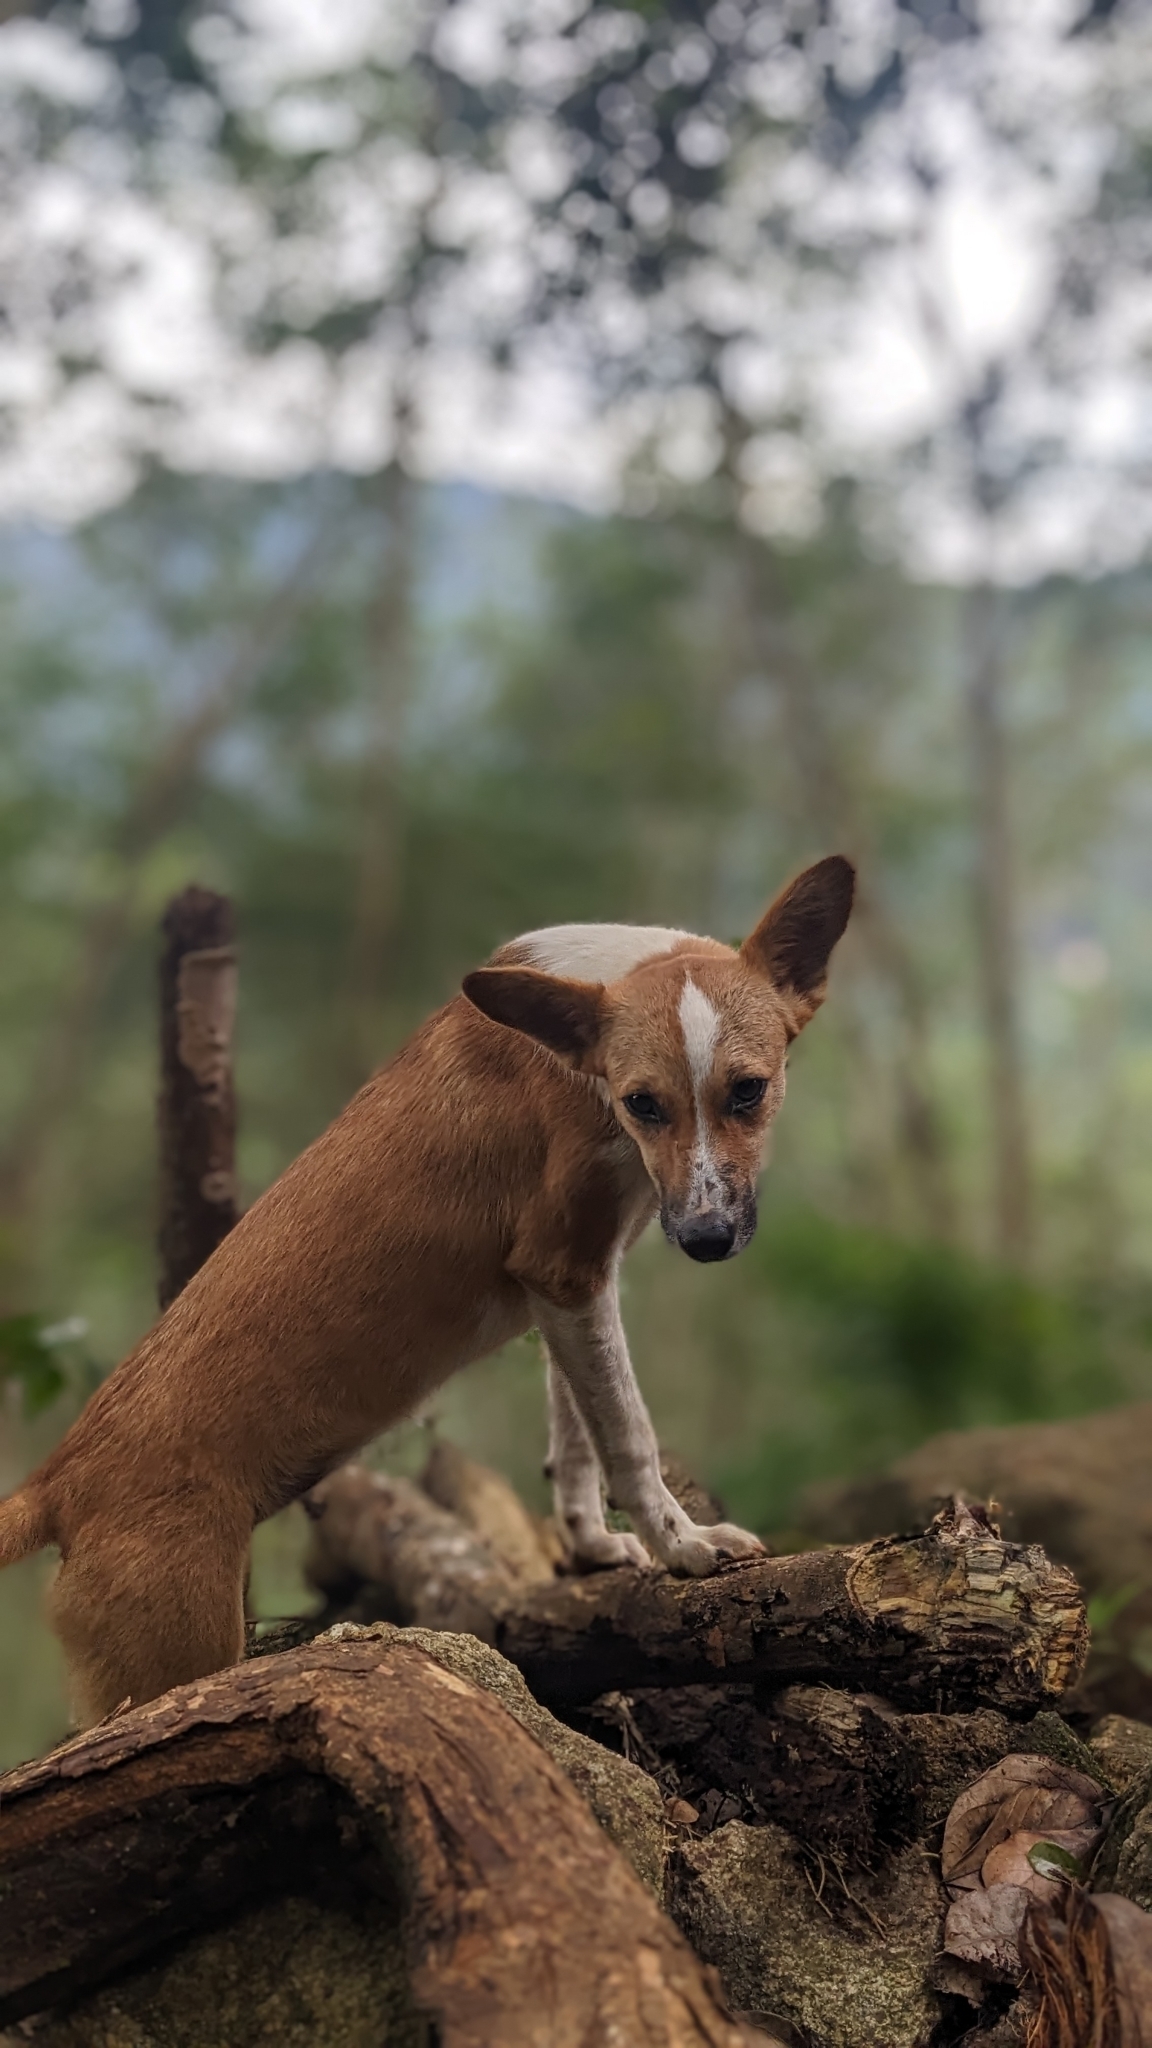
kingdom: Animalia
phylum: Chordata
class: Mammalia
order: Carnivora
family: Canidae
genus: Canis
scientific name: Canis lupus
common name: Gray wolf
